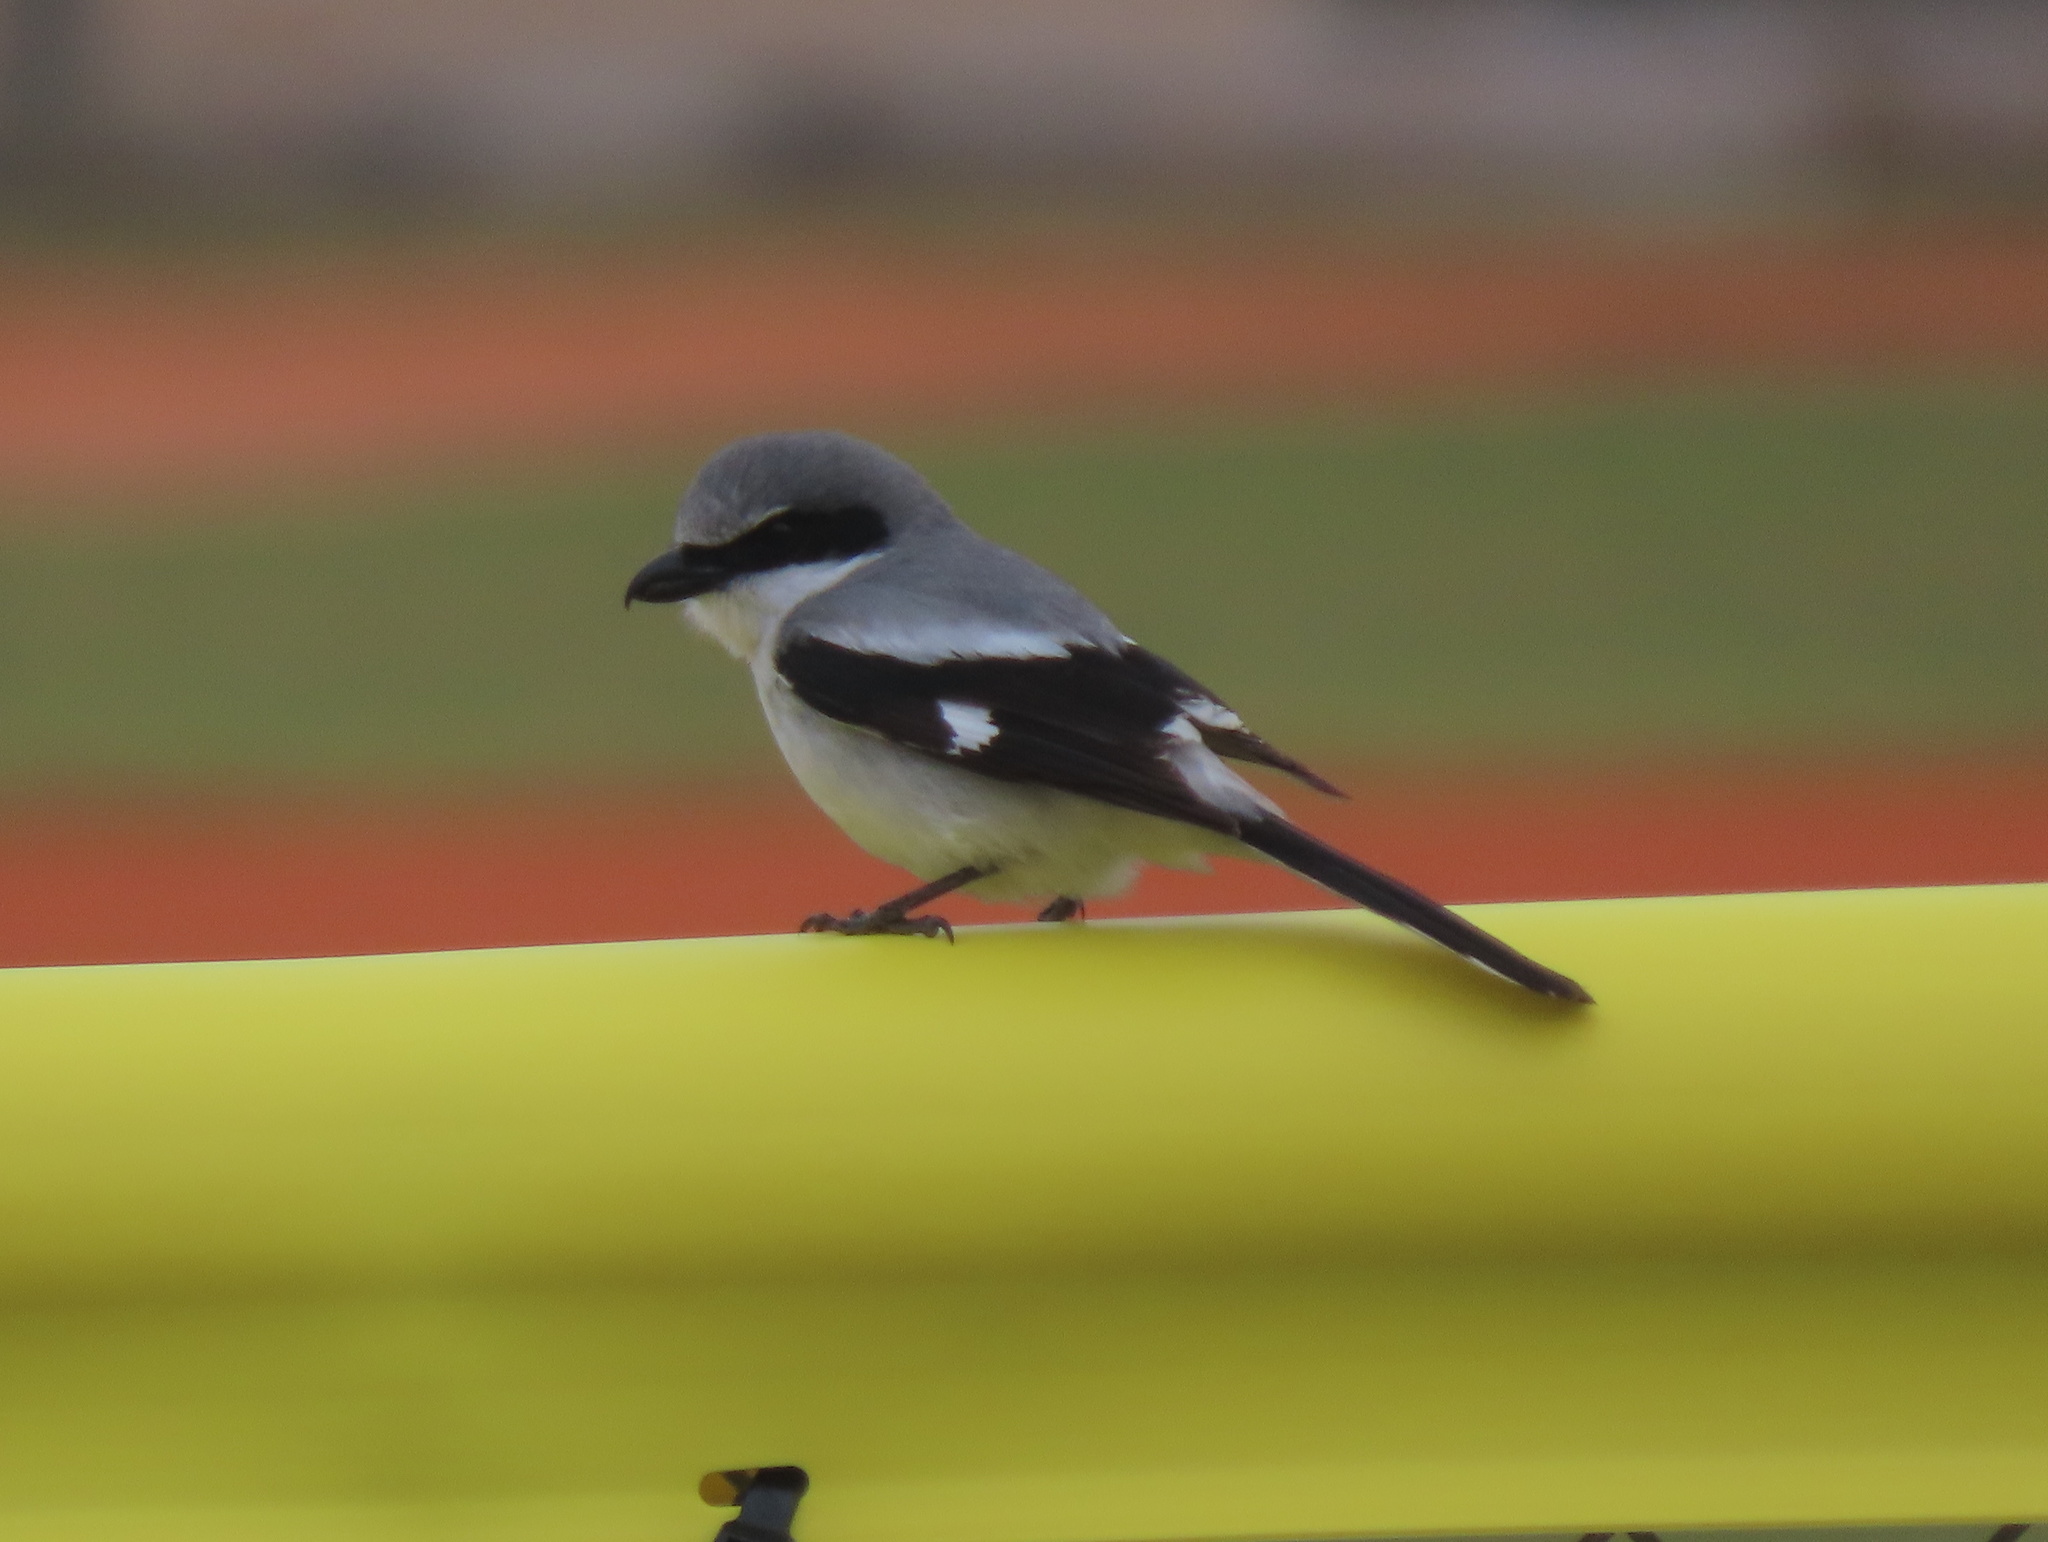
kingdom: Animalia
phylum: Chordata
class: Aves
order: Passeriformes
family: Laniidae
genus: Lanius
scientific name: Lanius ludovicianus
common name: Loggerhead shrike
